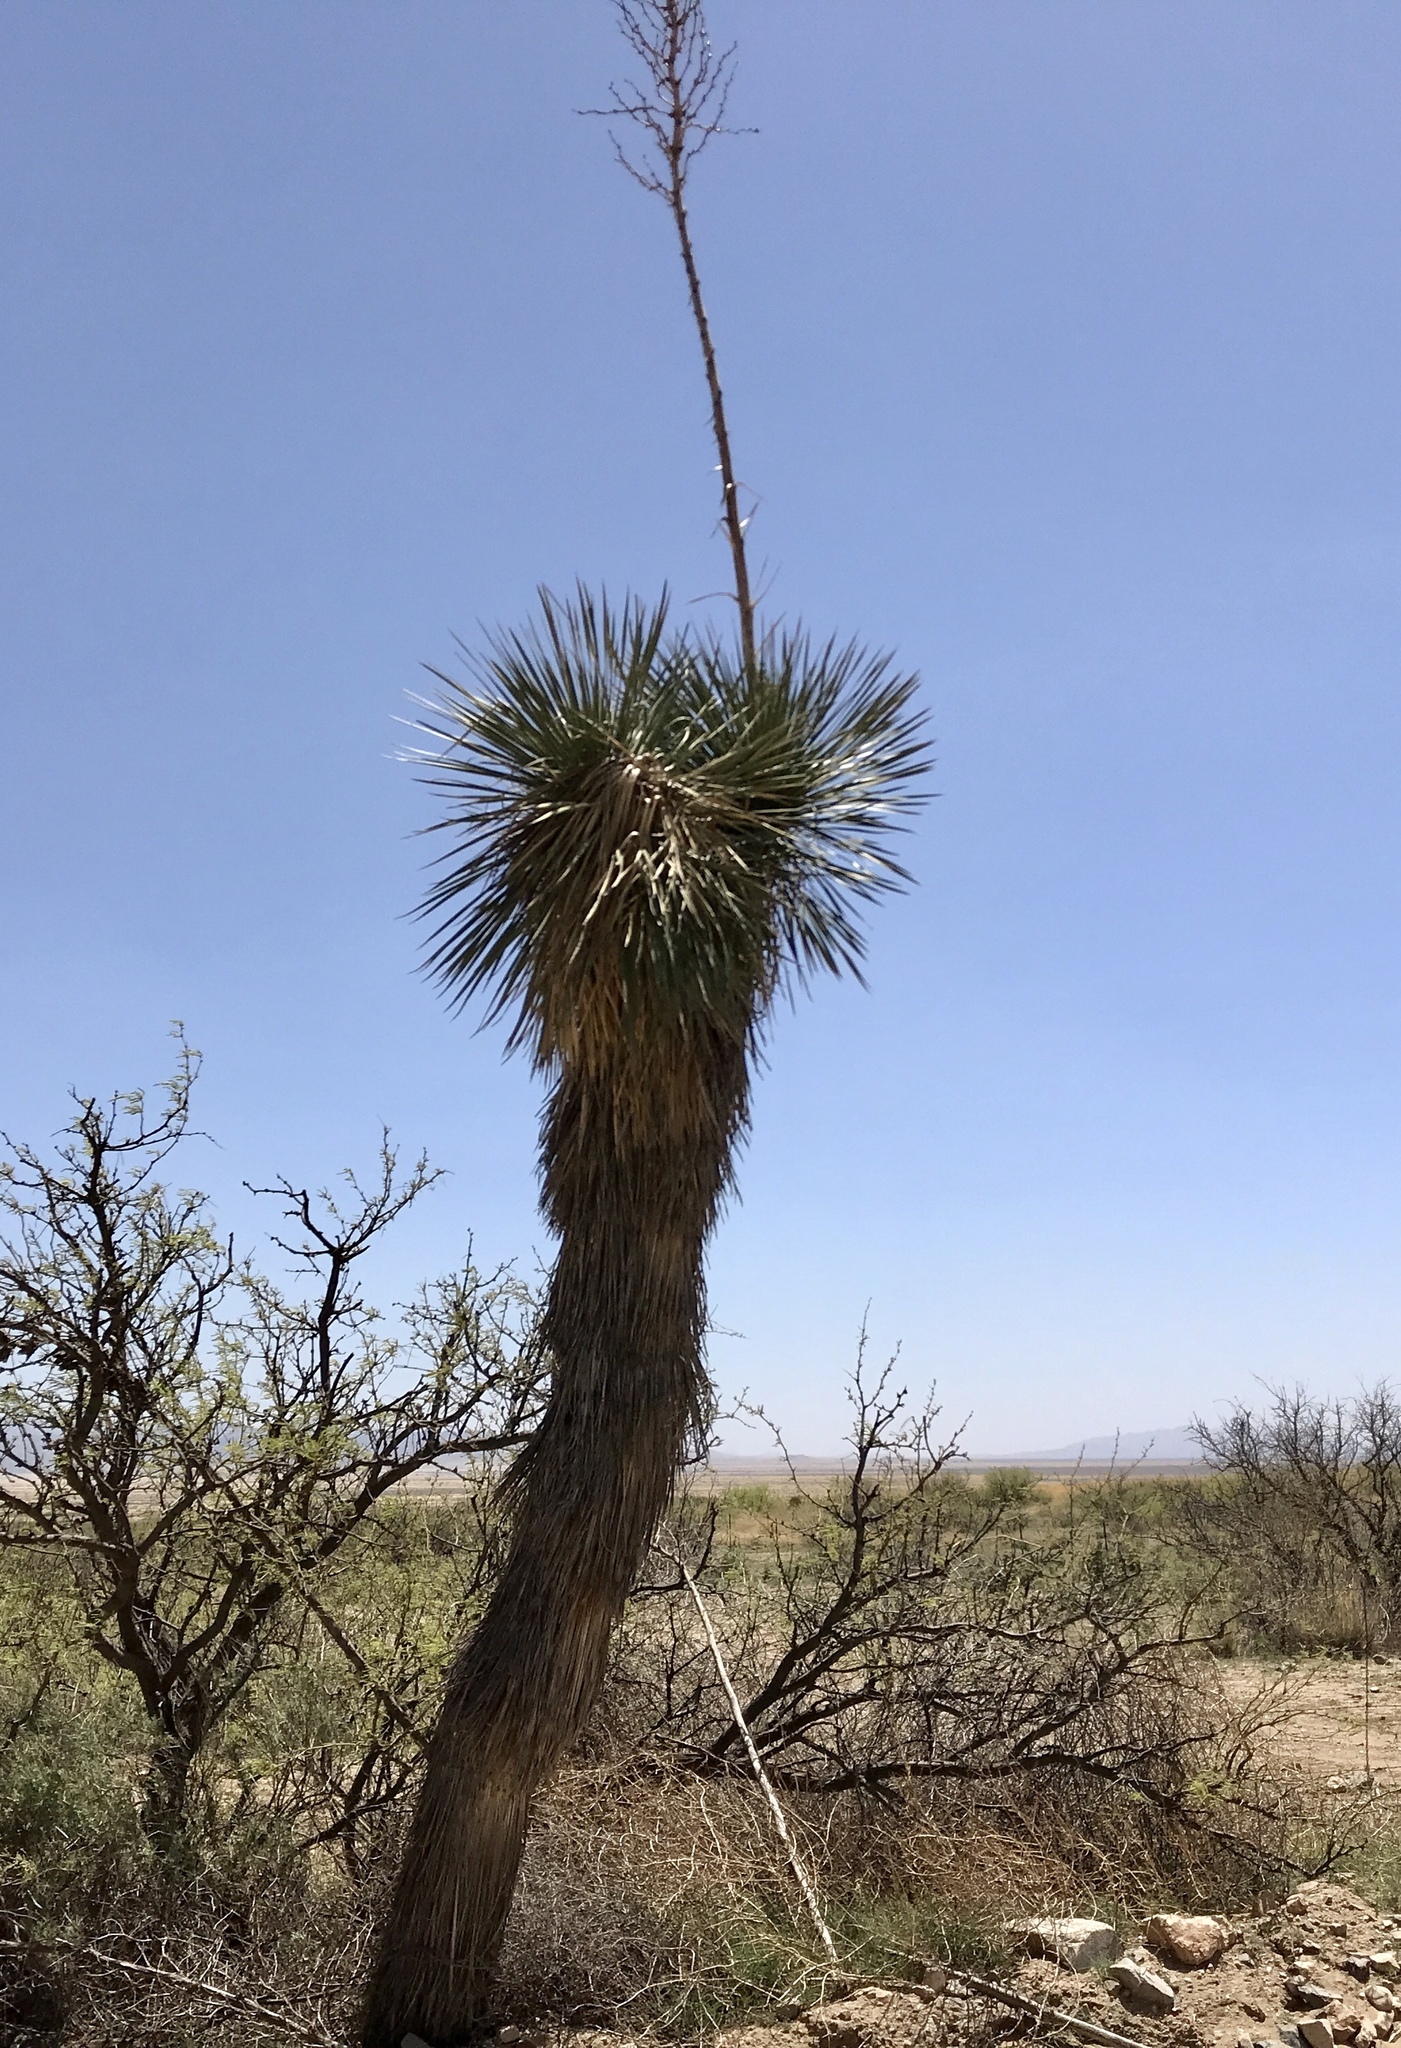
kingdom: Plantae
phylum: Tracheophyta
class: Liliopsida
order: Asparagales
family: Asparagaceae
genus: Yucca
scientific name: Yucca elata
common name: Palmella
